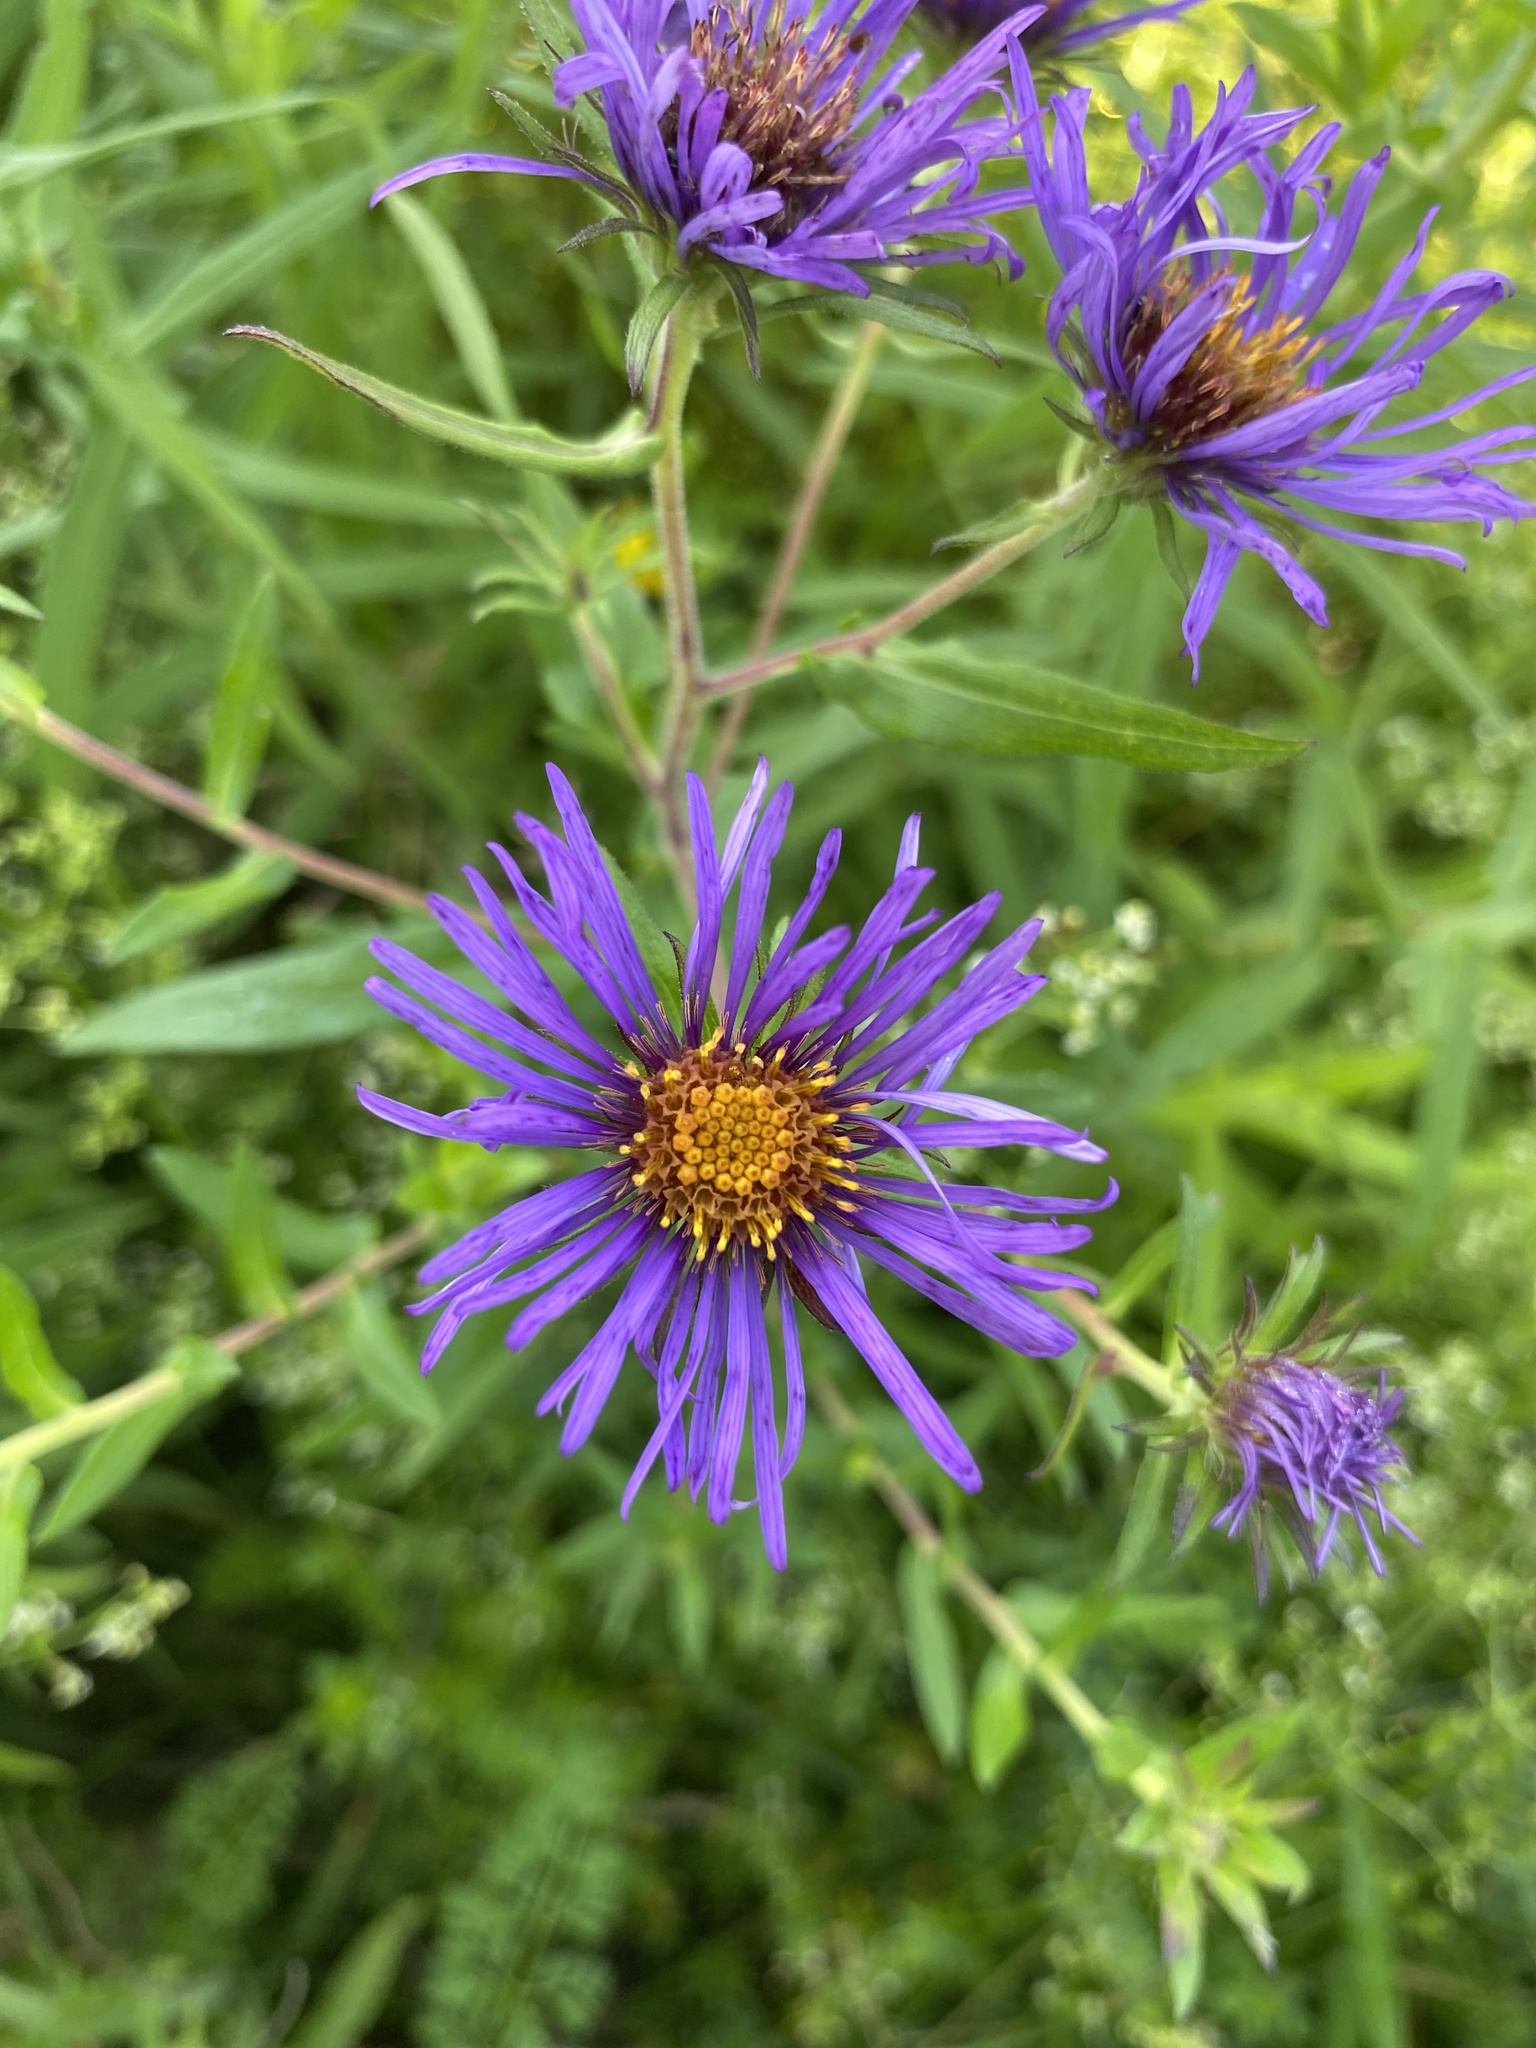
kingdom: Plantae
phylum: Tracheophyta
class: Magnoliopsida
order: Asterales
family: Asteraceae
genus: Symphyotrichum
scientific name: Symphyotrichum novae-angliae
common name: Michaelmas daisy
